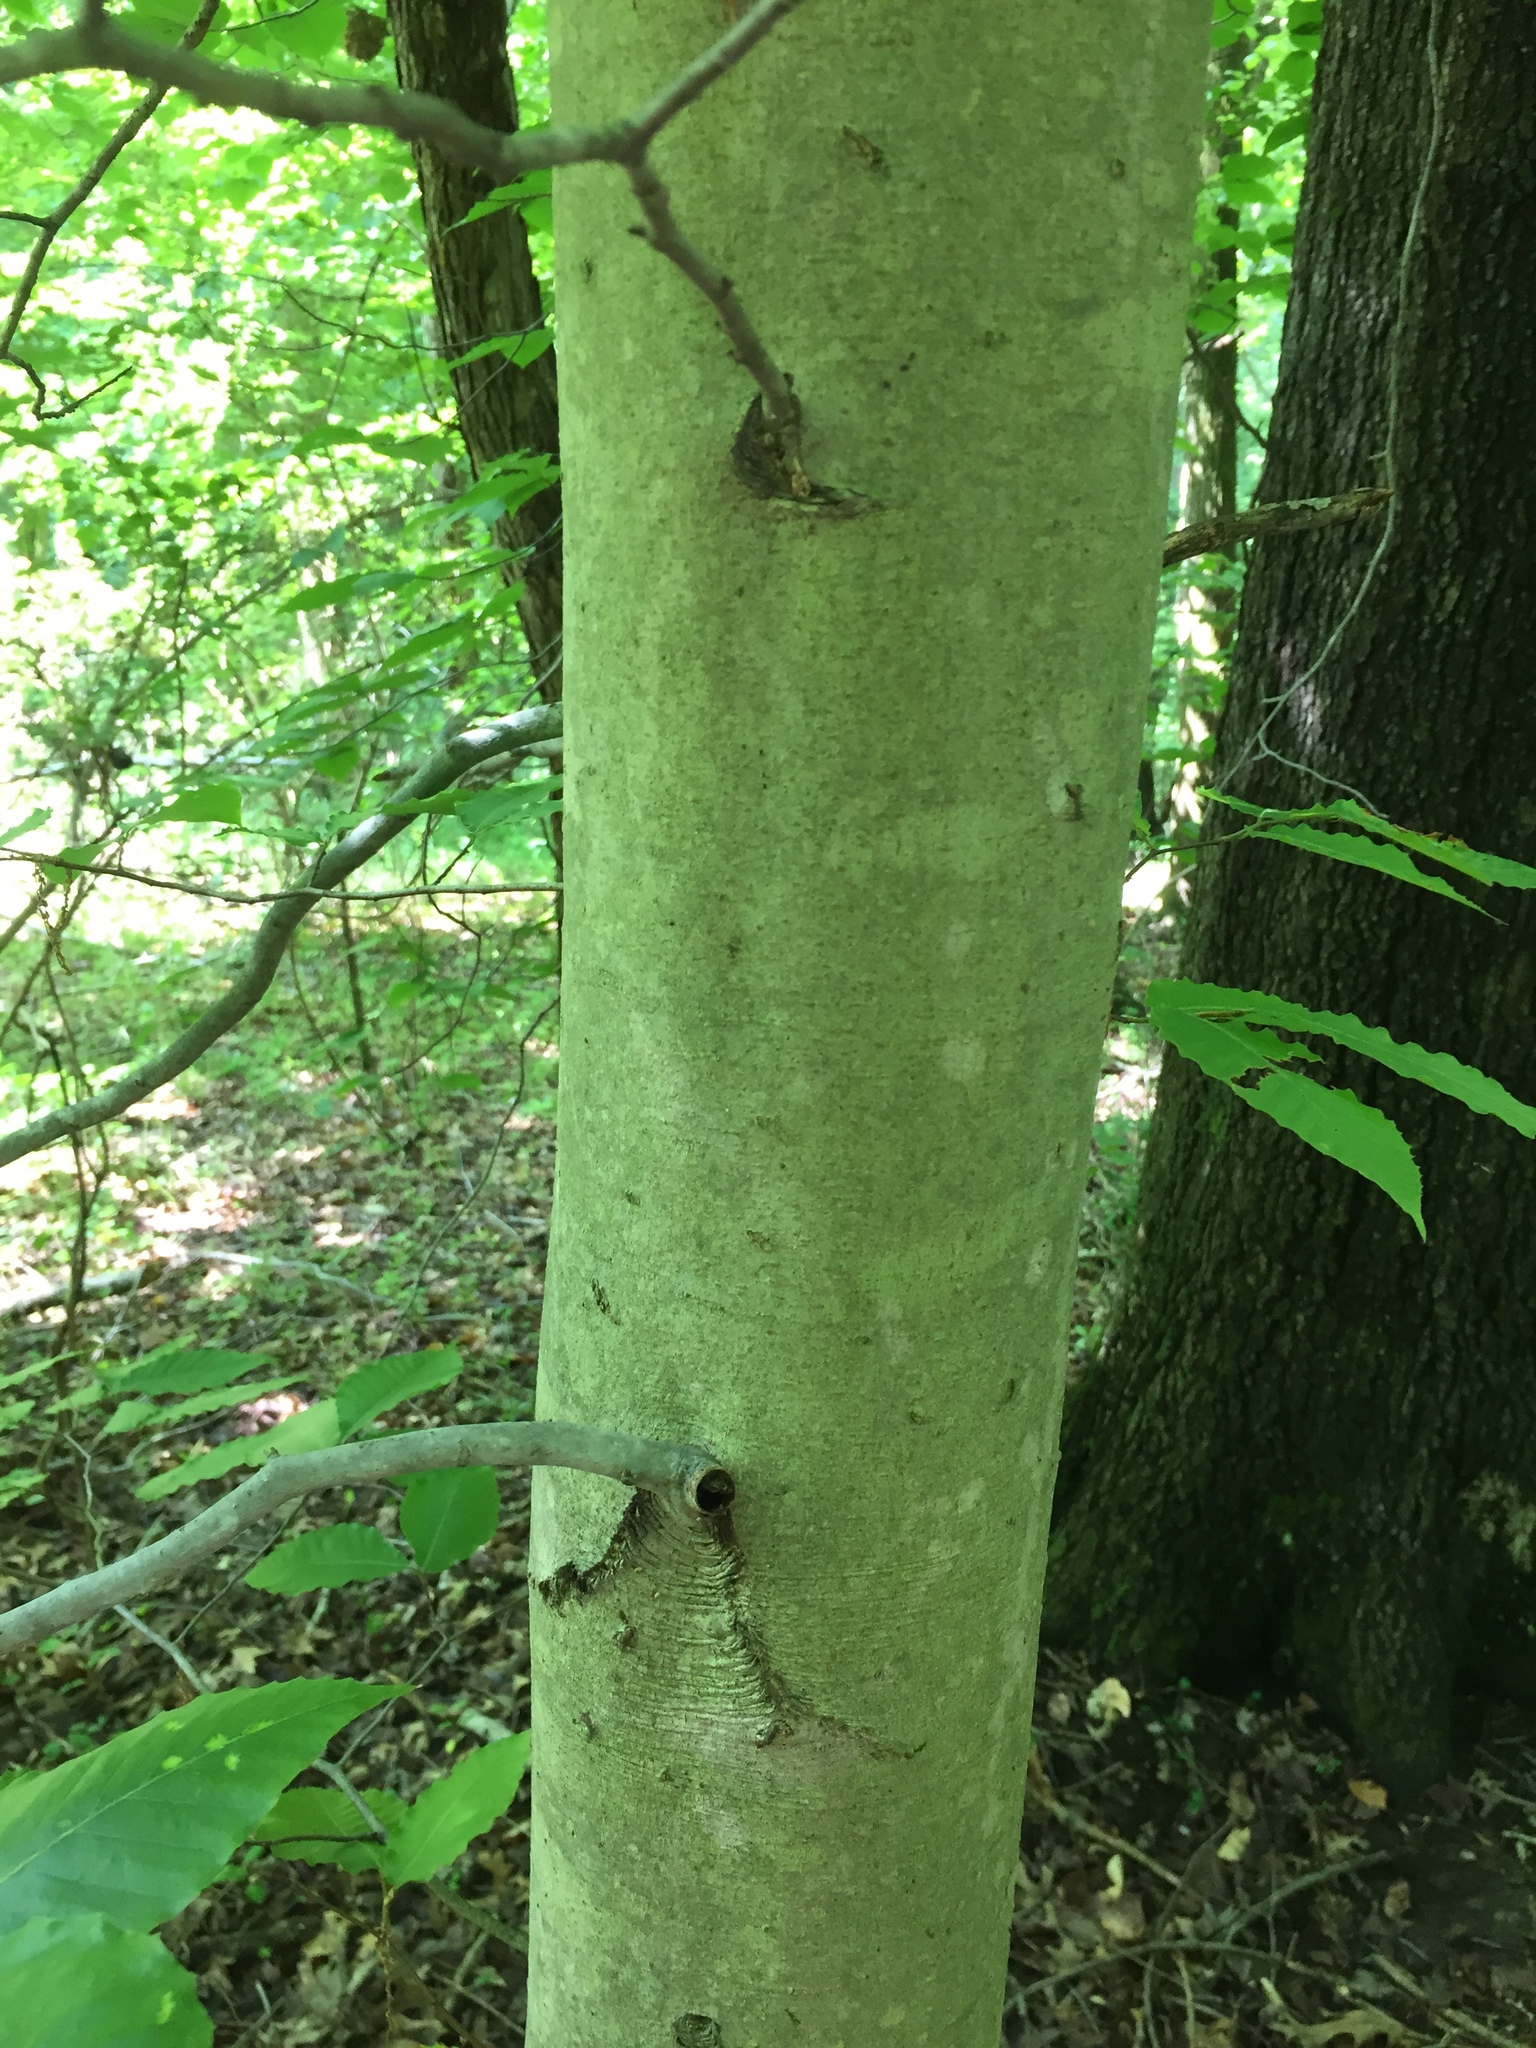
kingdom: Plantae
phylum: Tracheophyta
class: Magnoliopsida
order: Fagales
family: Fagaceae
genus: Fagus
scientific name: Fagus grandifolia
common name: American beech
